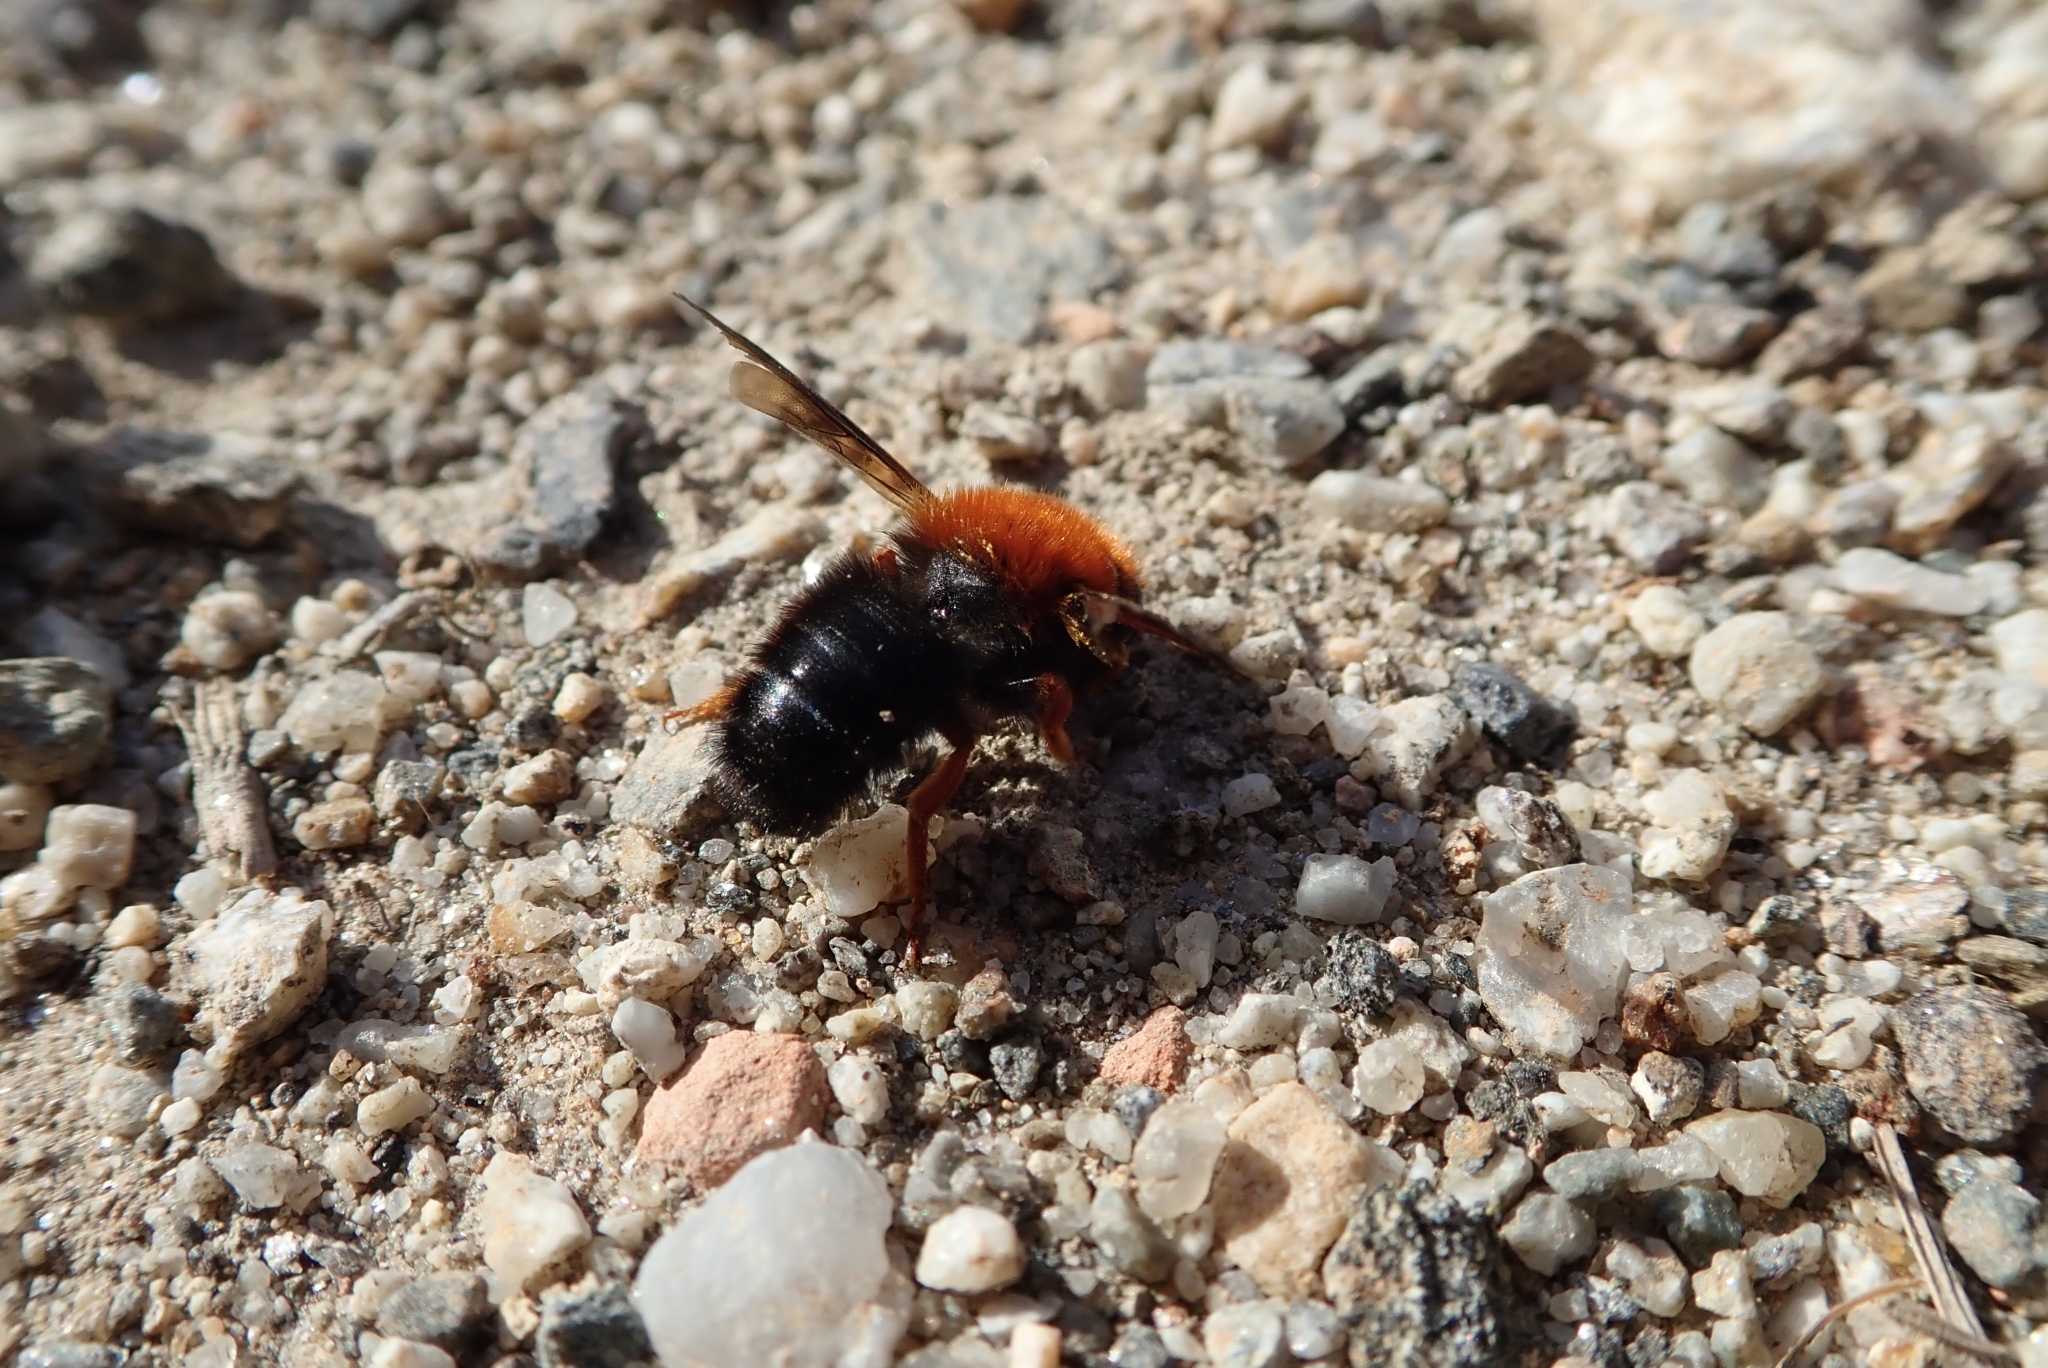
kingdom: Animalia
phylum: Arthropoda
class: Insecta
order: Hymenoptera
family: Megachilidae
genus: Megachile
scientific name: Megachile sicula
